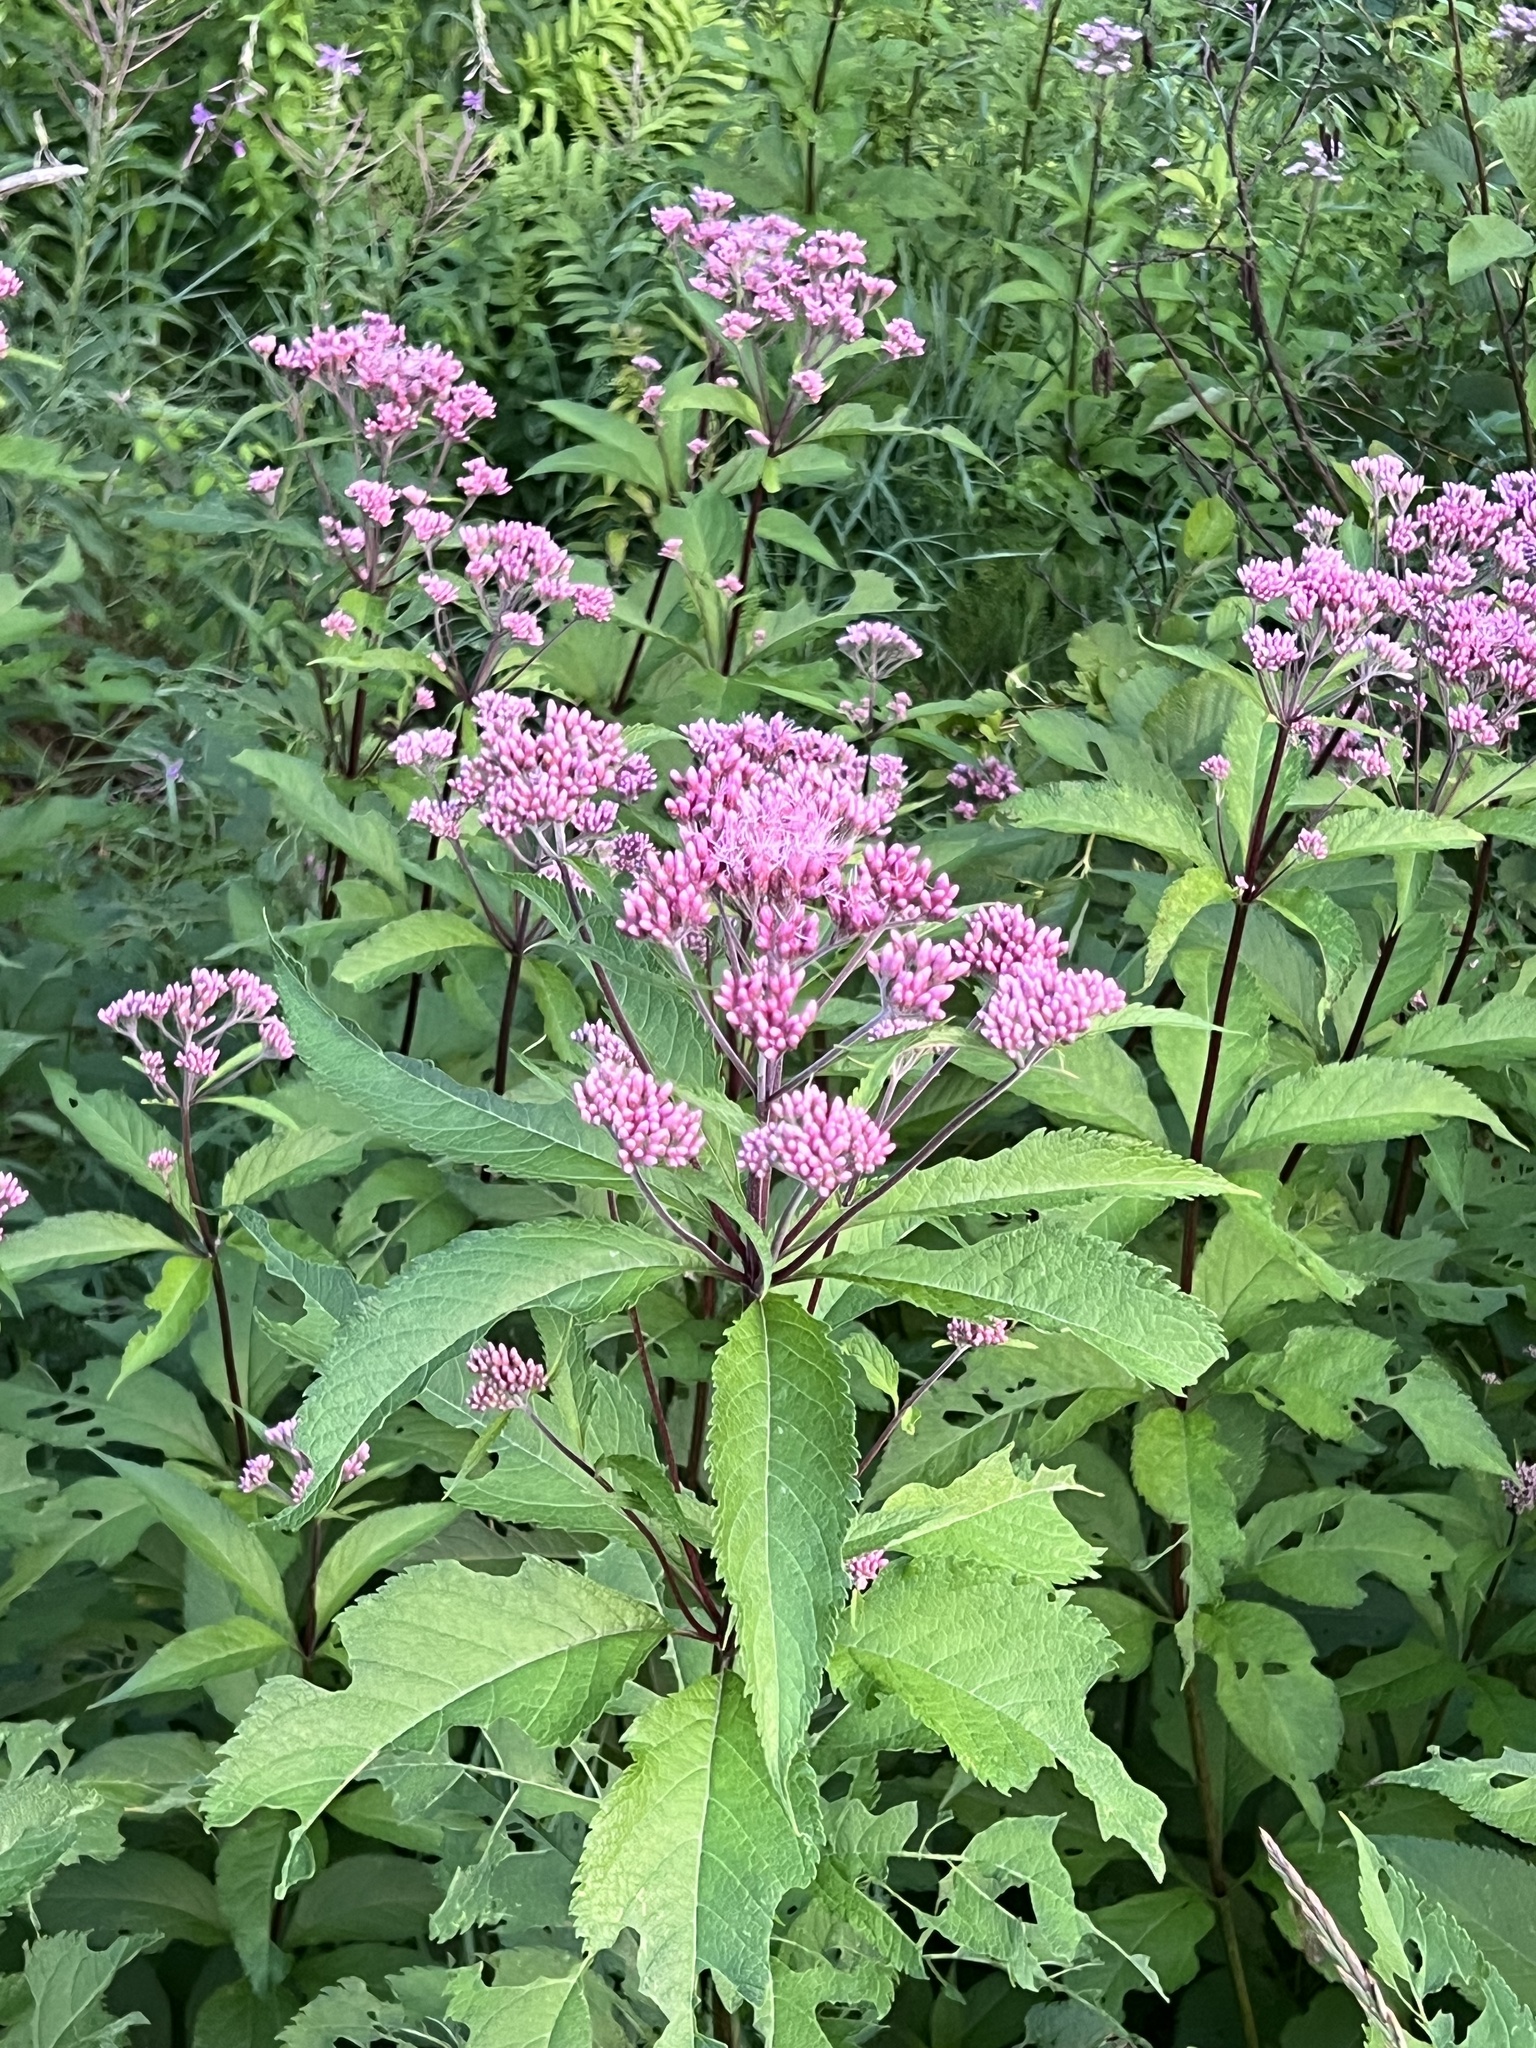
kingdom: Plantae
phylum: Tracheophyta
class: Magnoliopsida
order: Asterales
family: Asteraceae
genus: Eutrochium
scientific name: Eutrochium maculatum
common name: Spotted joe pye weed
